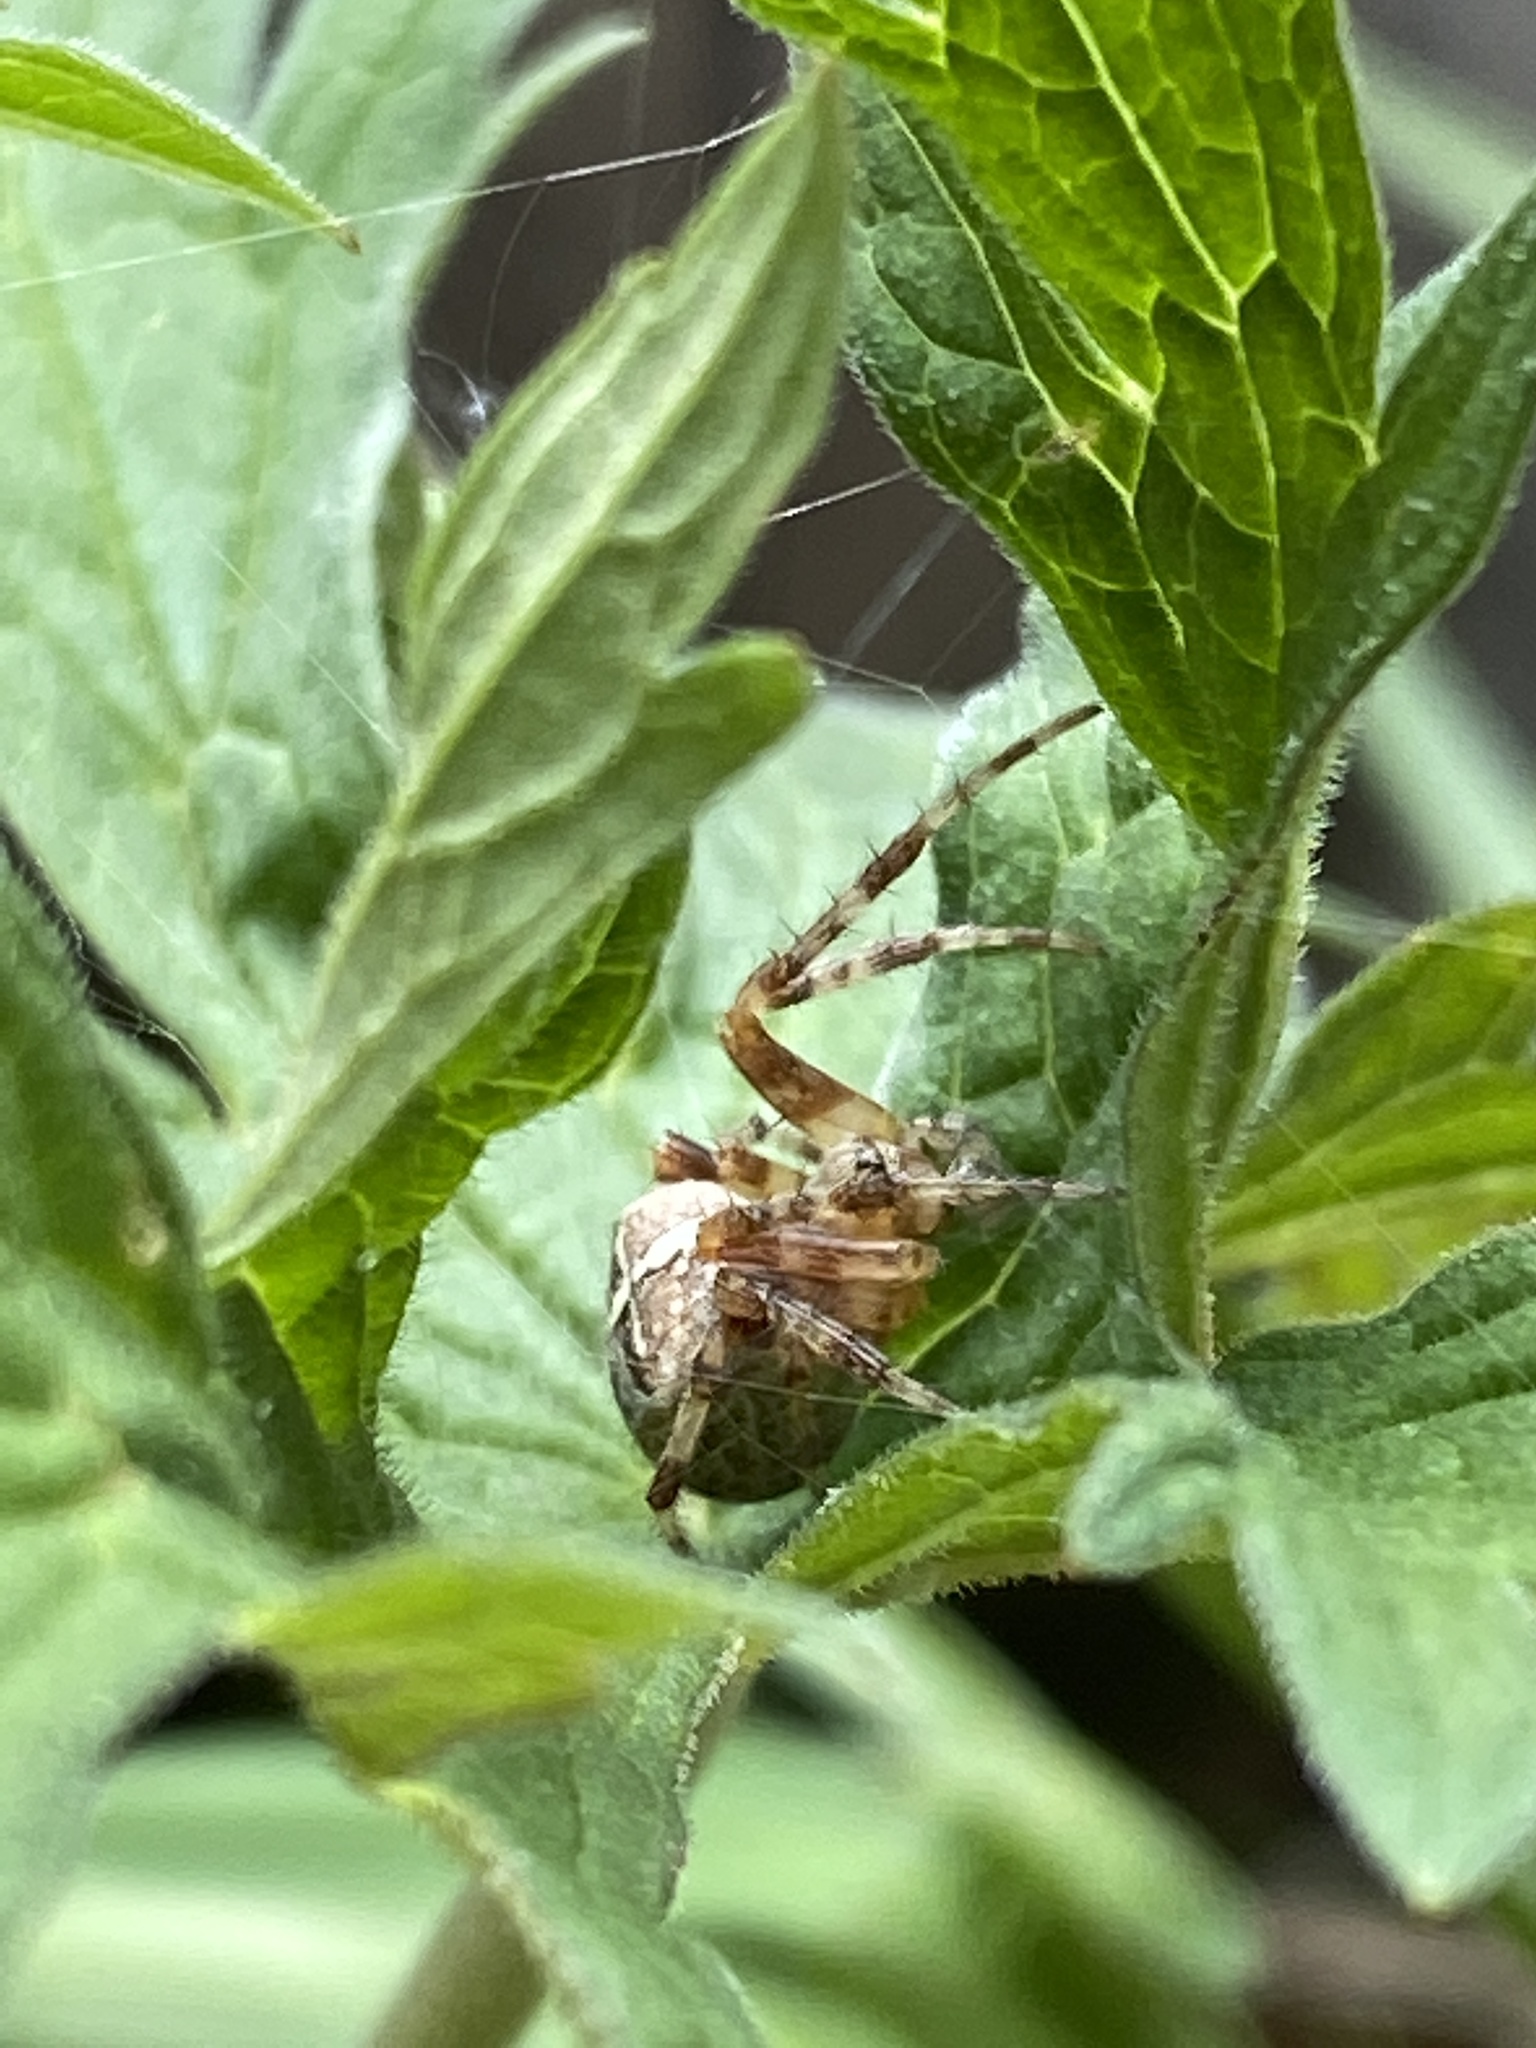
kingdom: Animalia
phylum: Arthropoda
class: Arachnida
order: Araneae
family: Araneidae
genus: Araneus
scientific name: Araneus diadematus
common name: Cross orbweaver
